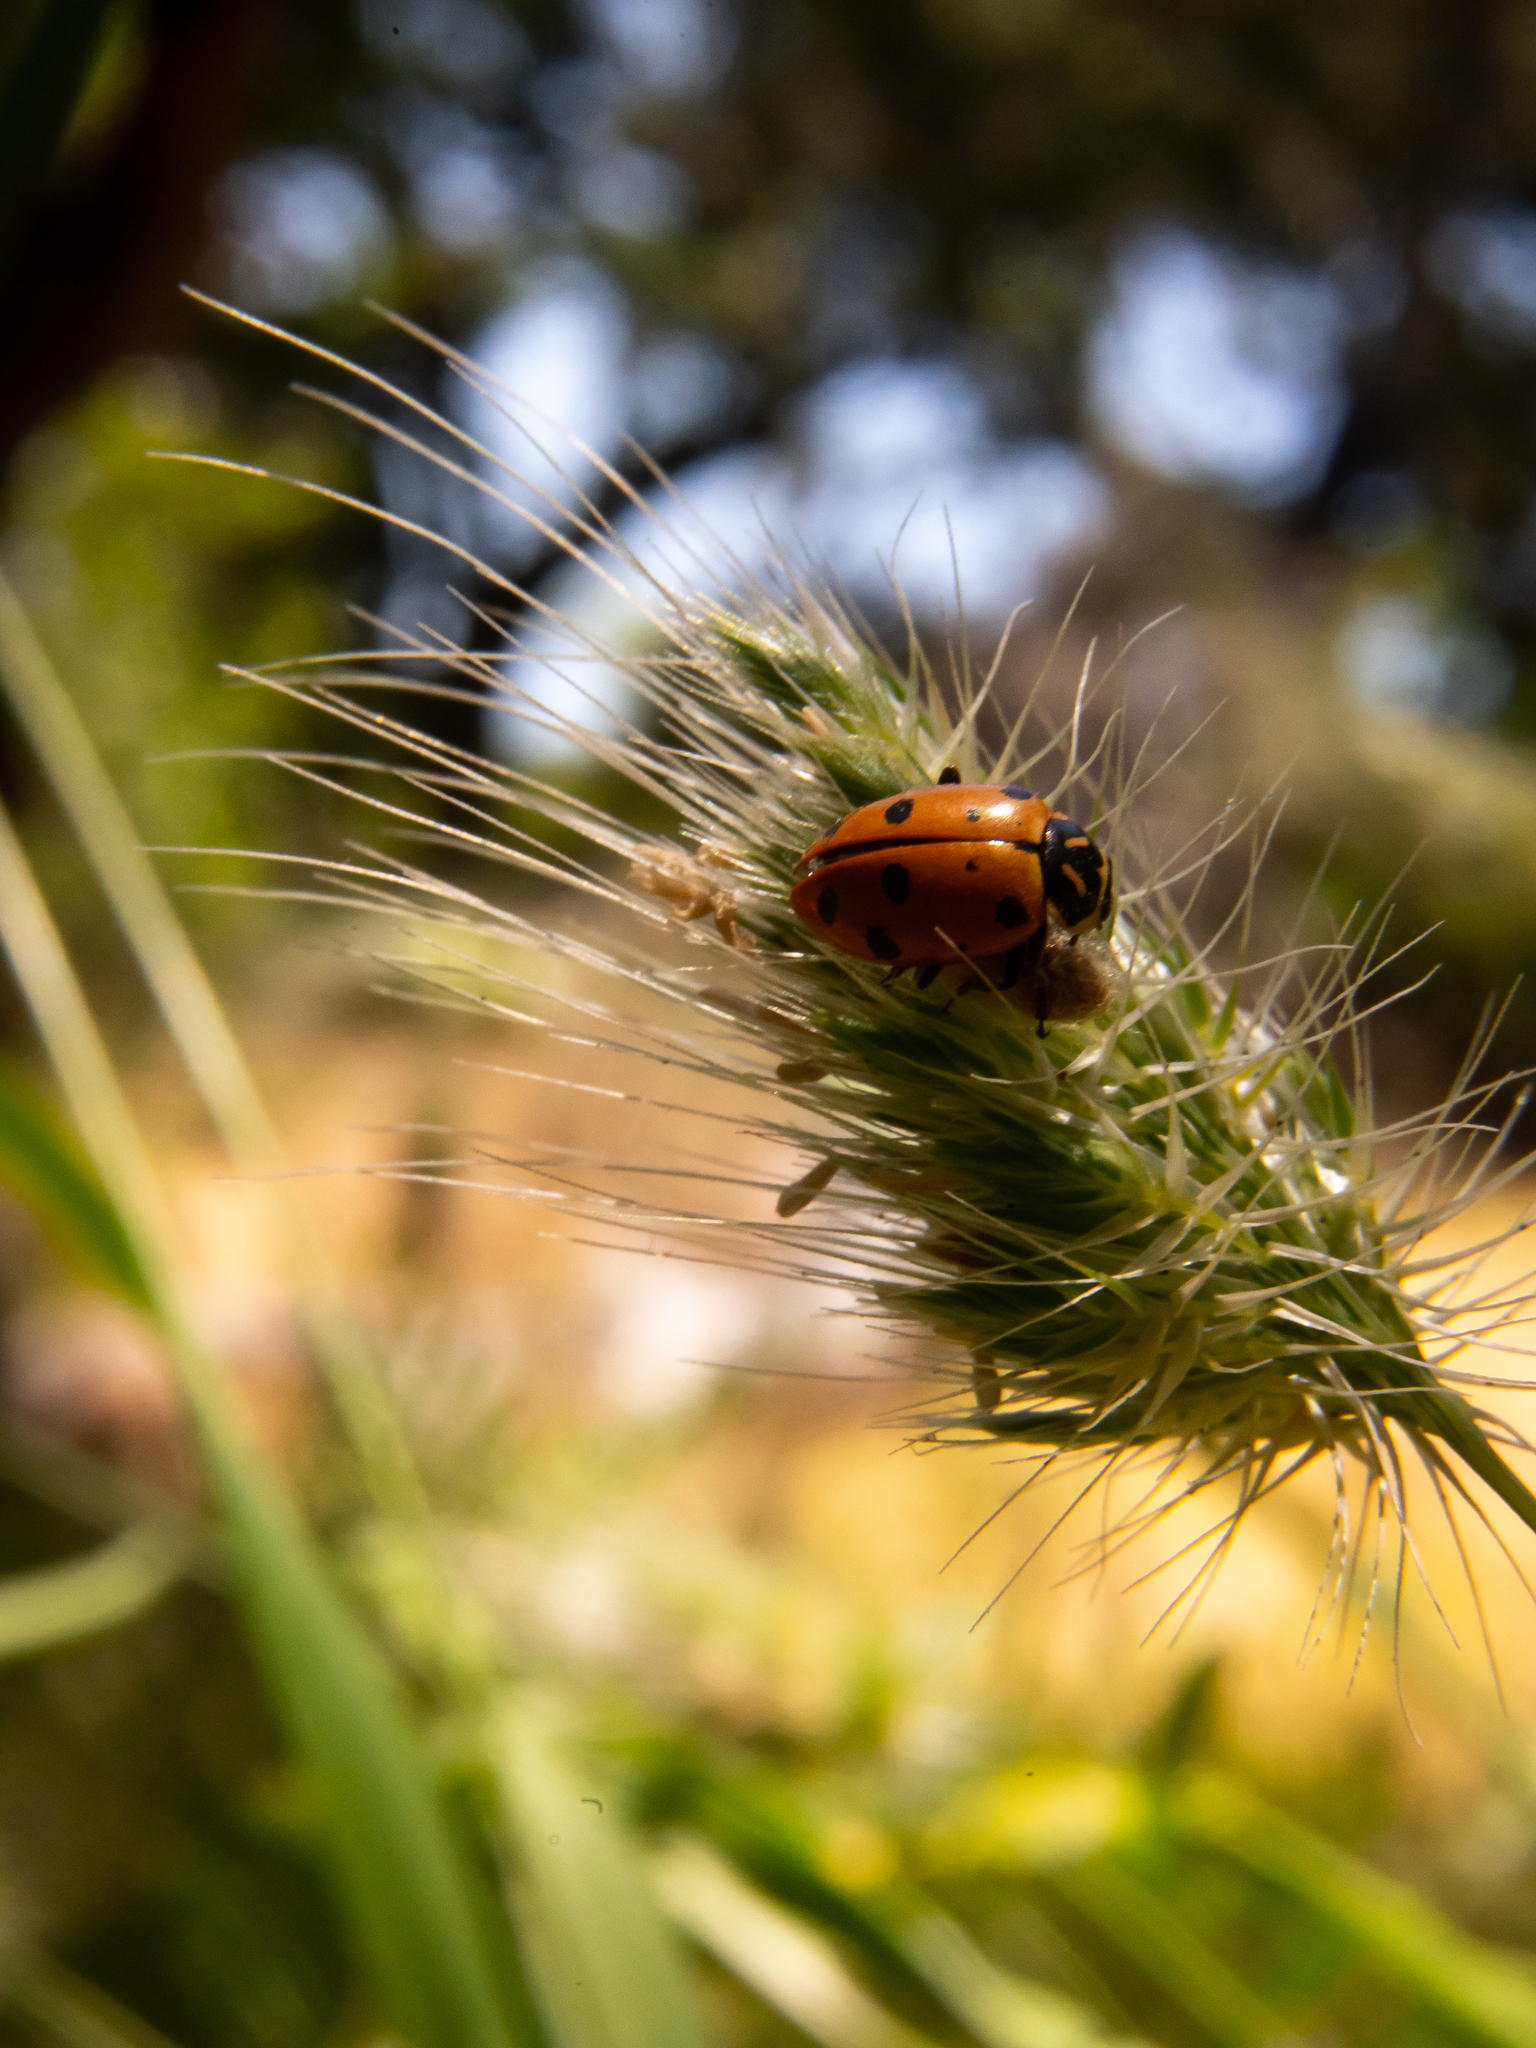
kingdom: Animalia
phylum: Arthropoda
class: Insecta
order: Coleoptera
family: Coccinellidae
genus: Hippodamia
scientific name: Hippodamia convergens
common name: Convergent lady beetle
